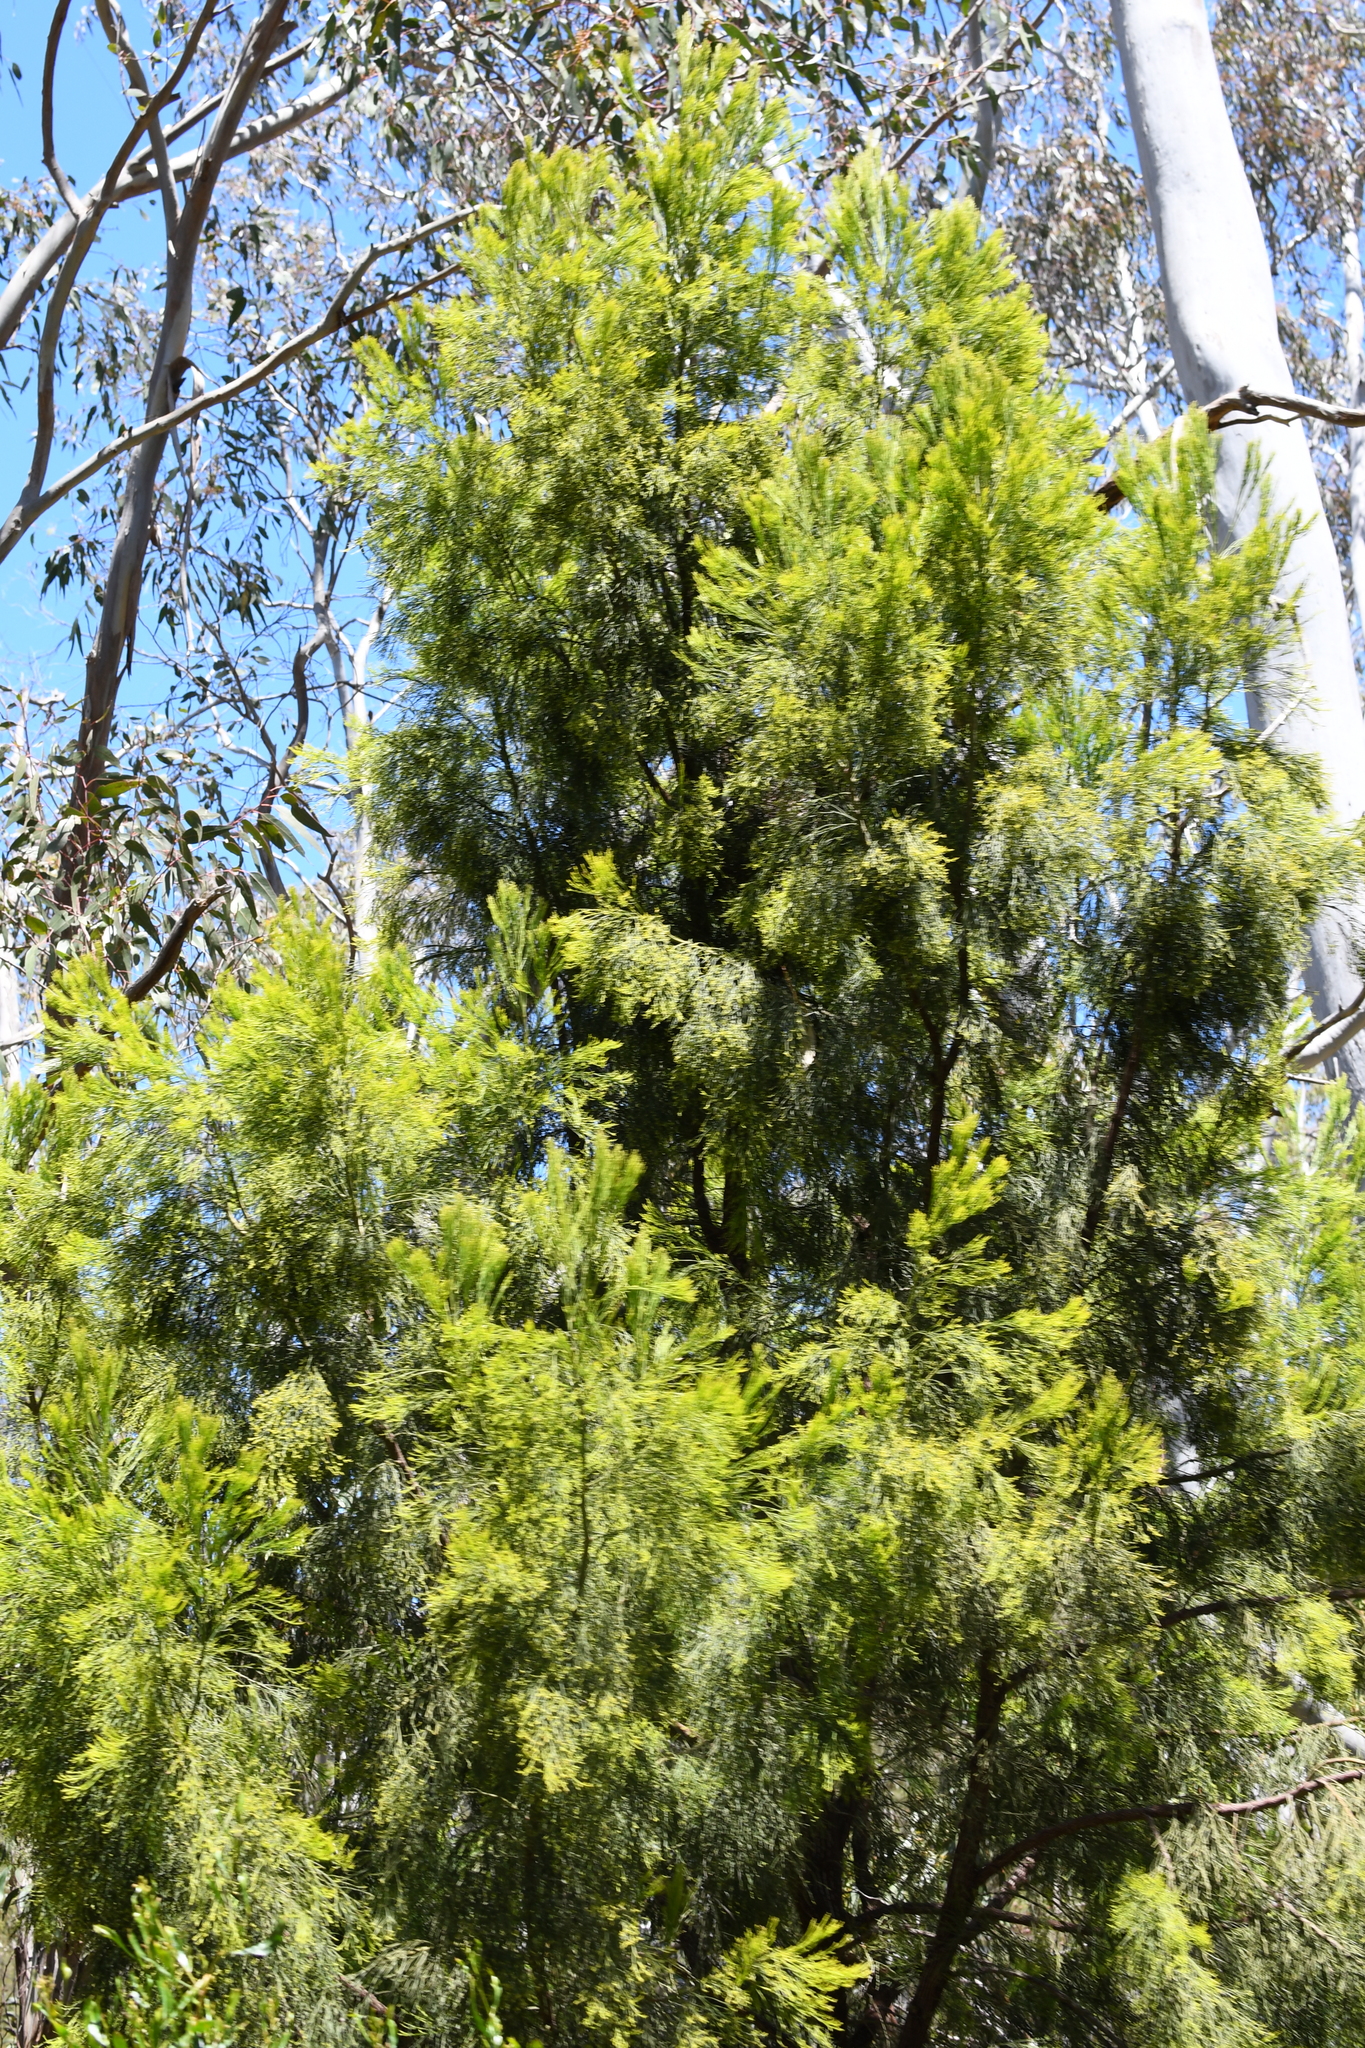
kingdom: Plantae
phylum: Tracheophyta
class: Magnoliopsida
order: Santalales
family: Santalaceae
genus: Exocarpos
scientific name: Exocarpos cupressiformis
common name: Cherry ballart
